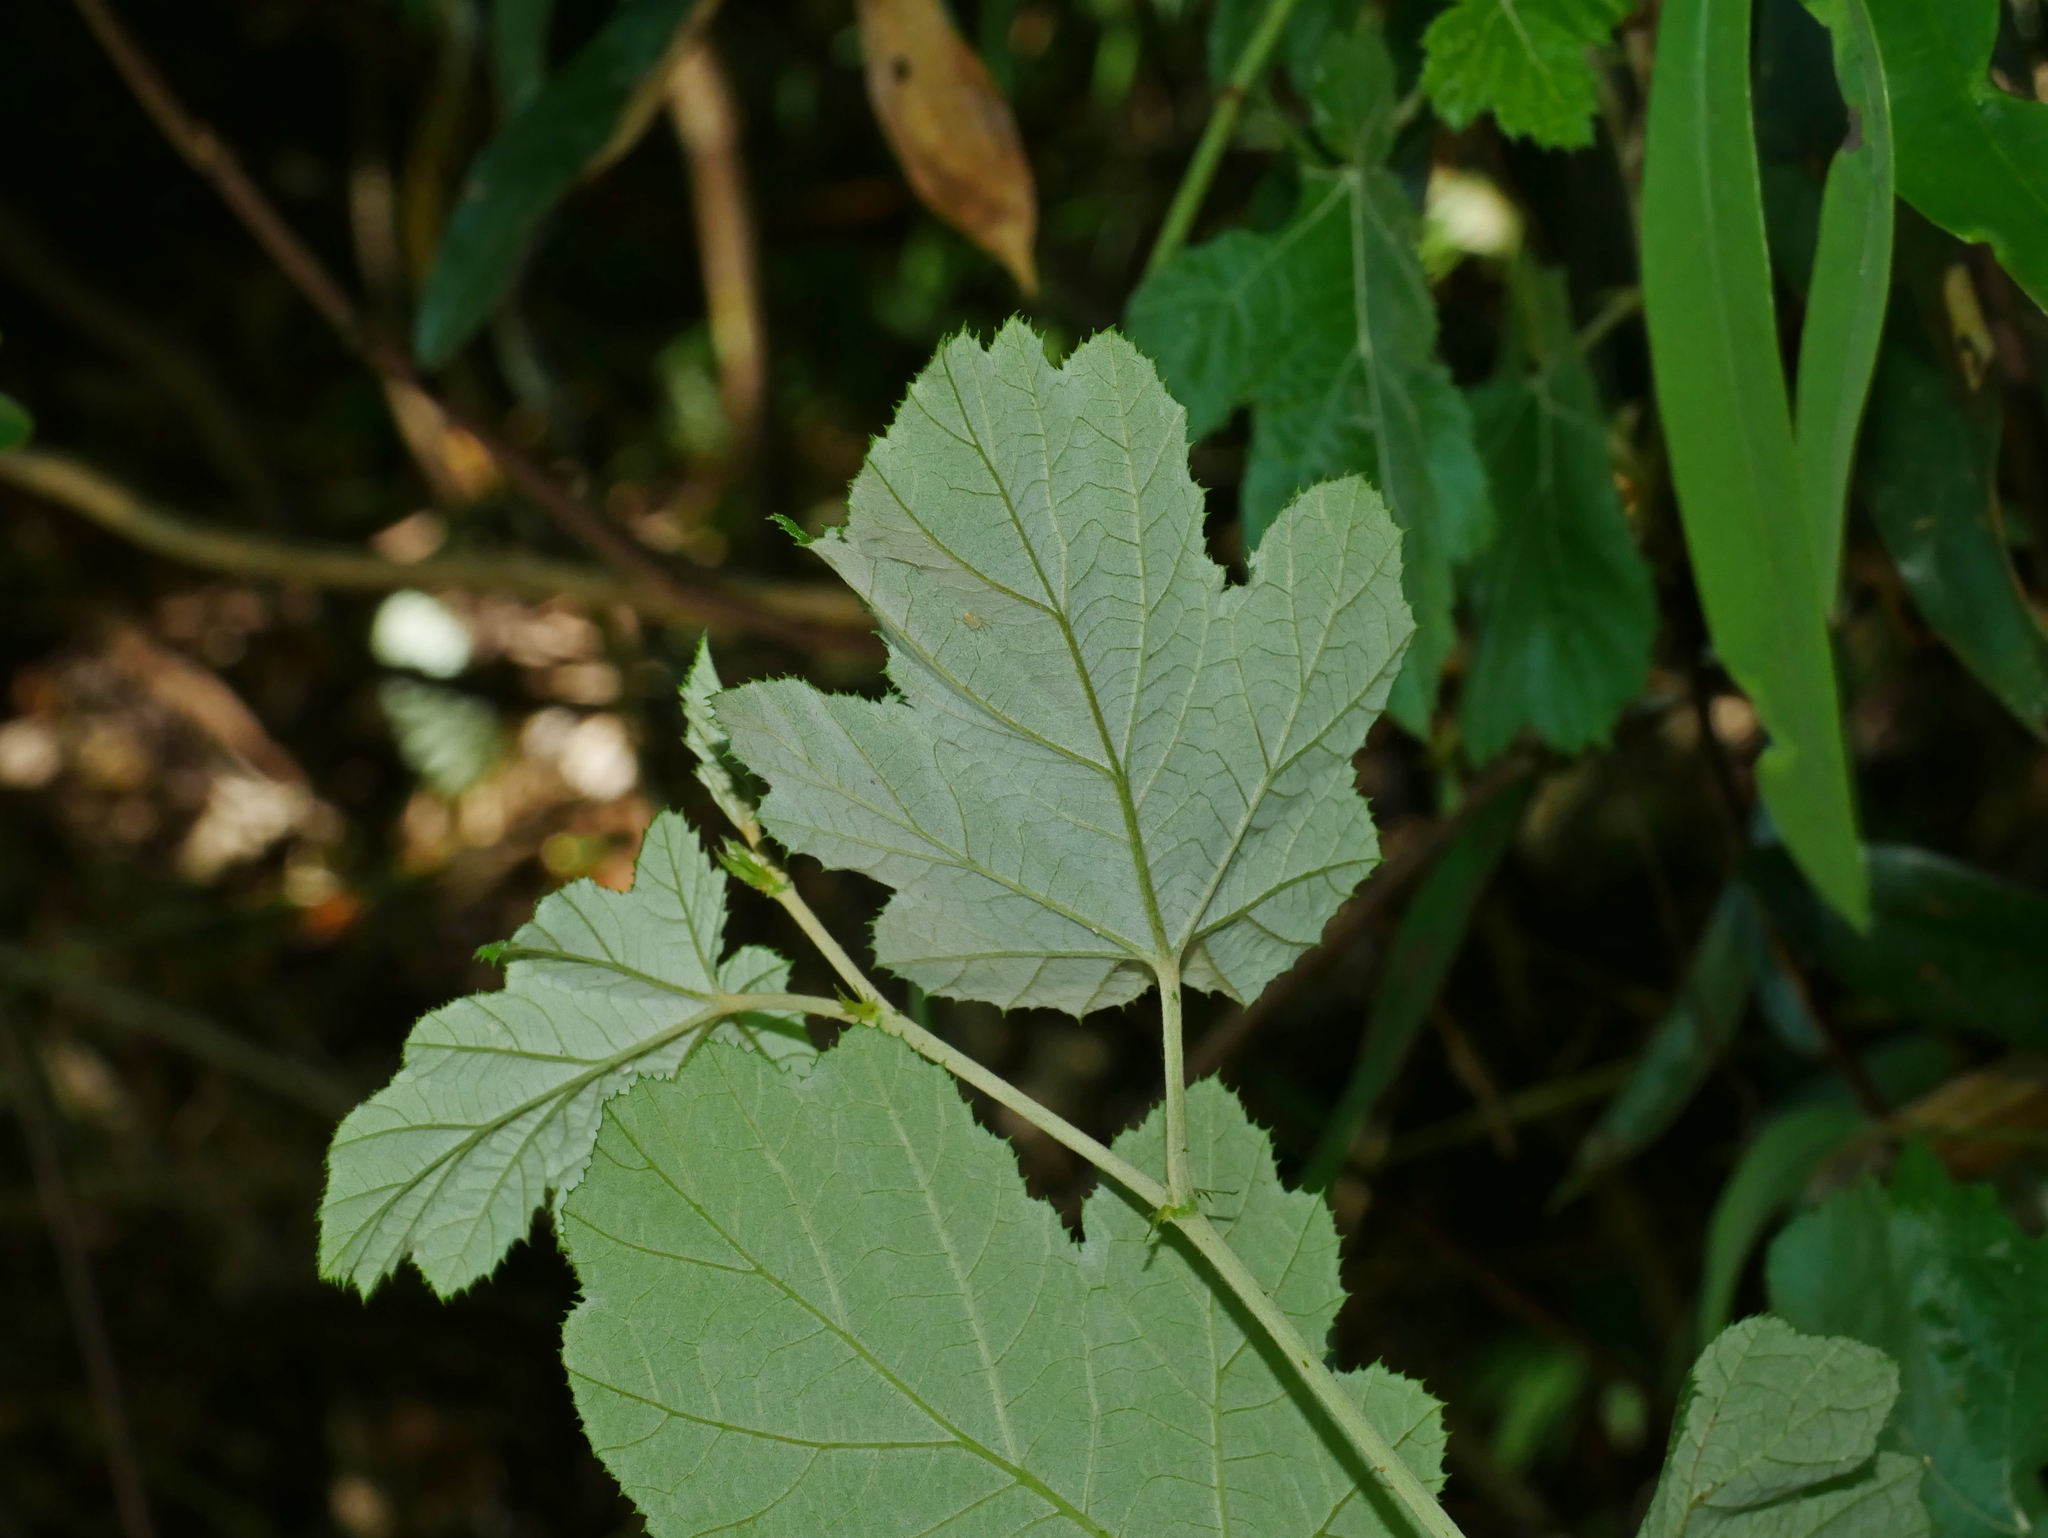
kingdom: Plantae
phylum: Tracheophyta
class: Magnoliopsida
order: Rosales
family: Rosaceae
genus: Rubus
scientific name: Rubus arachnoideus
